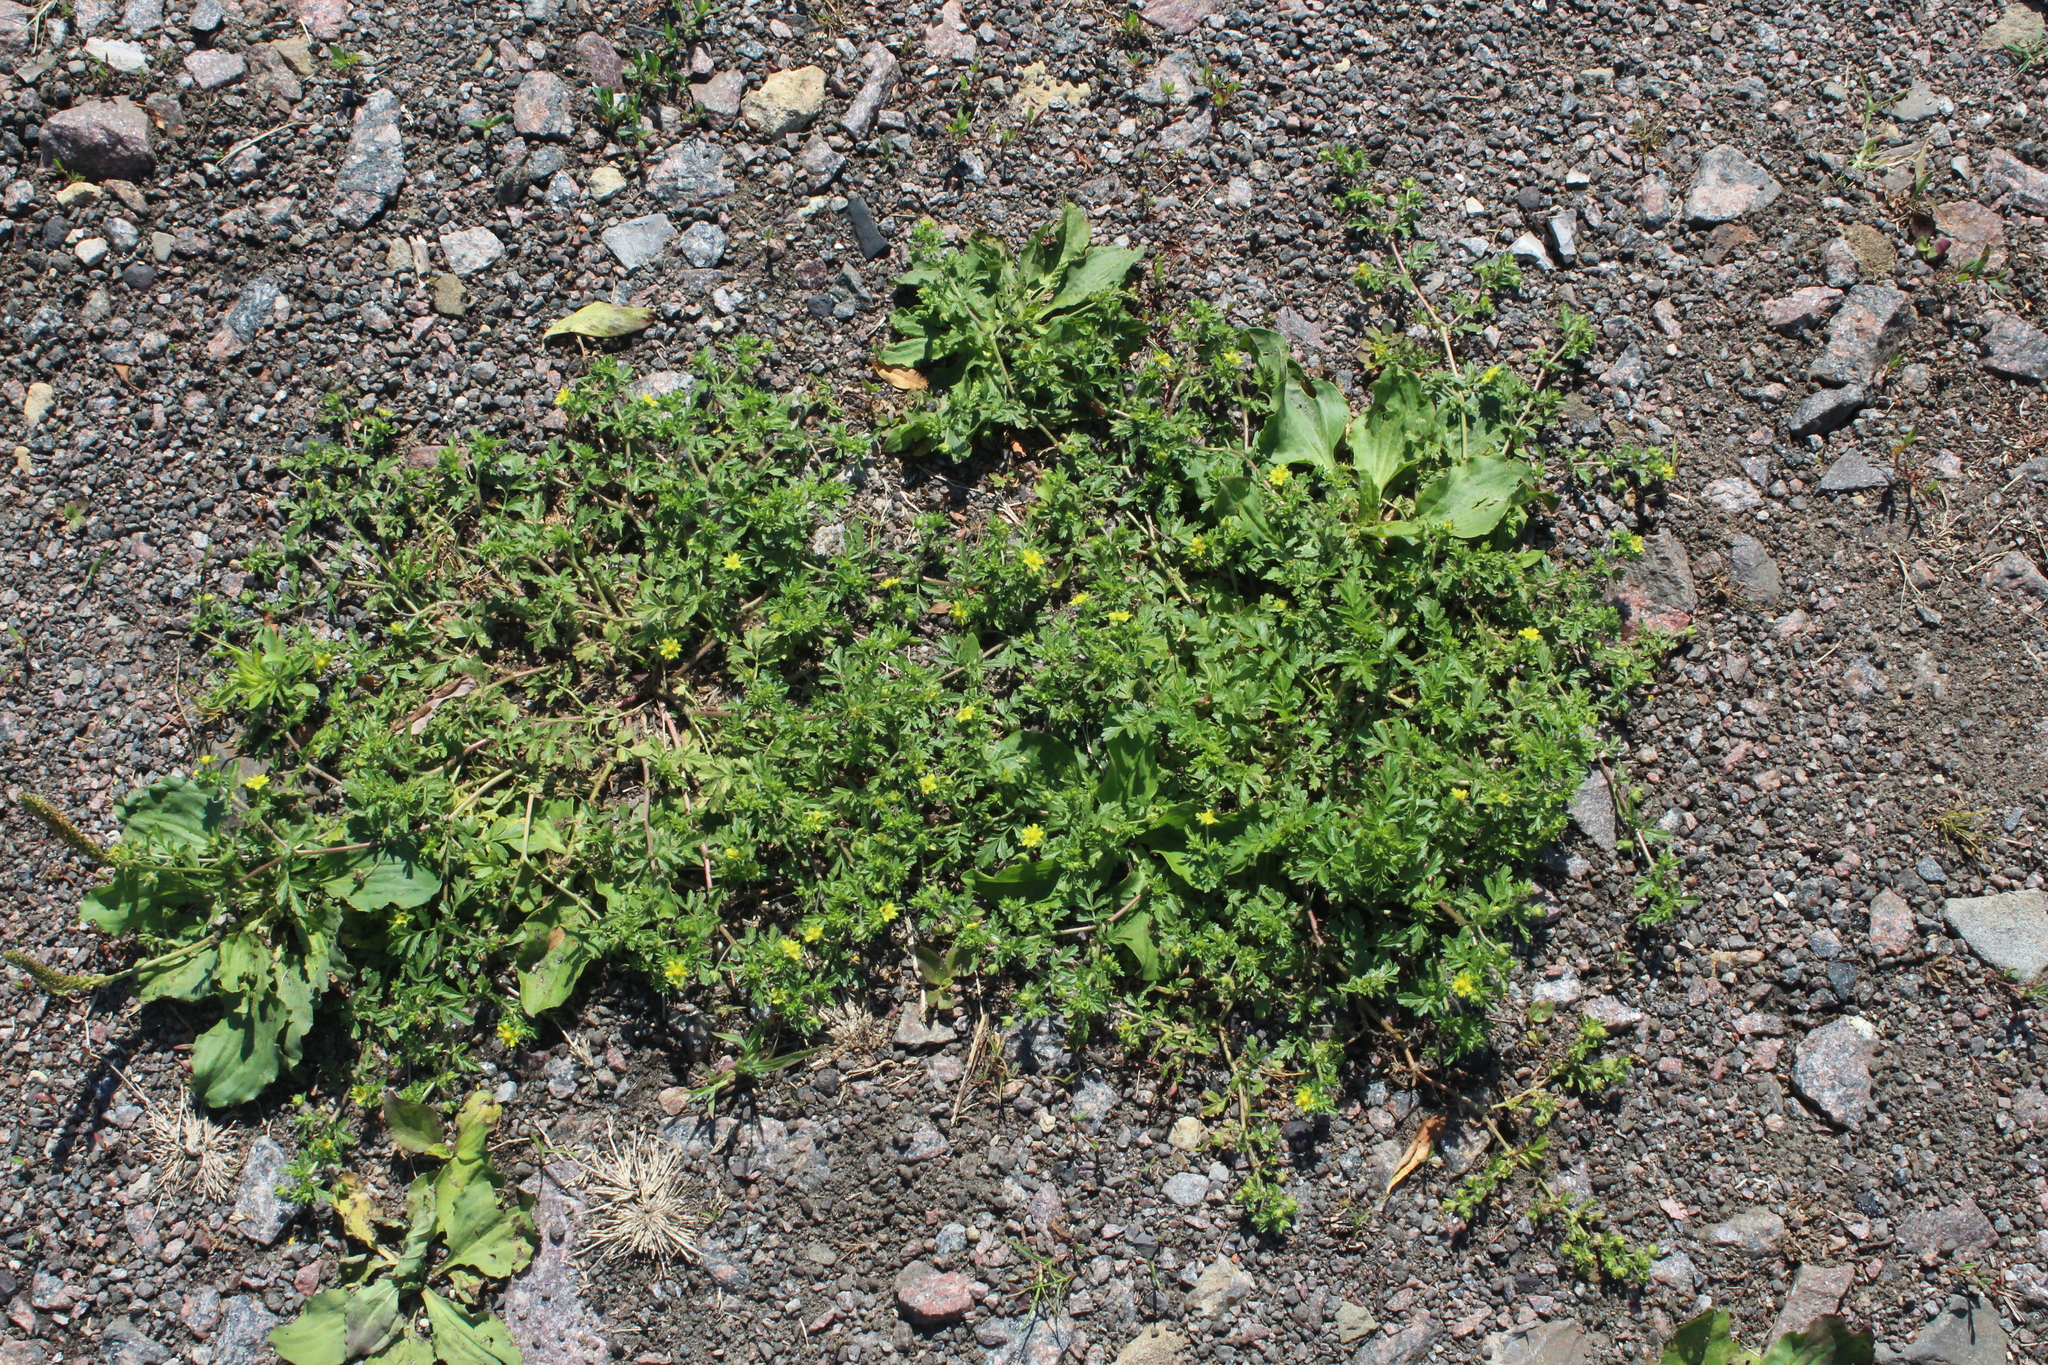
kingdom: Plantae
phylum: Tracheophyta
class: Magnoliopsida
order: Rosales
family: Rosaceae
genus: Potentilla
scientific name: Potentilla supina
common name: Prostrate cinquefoil
